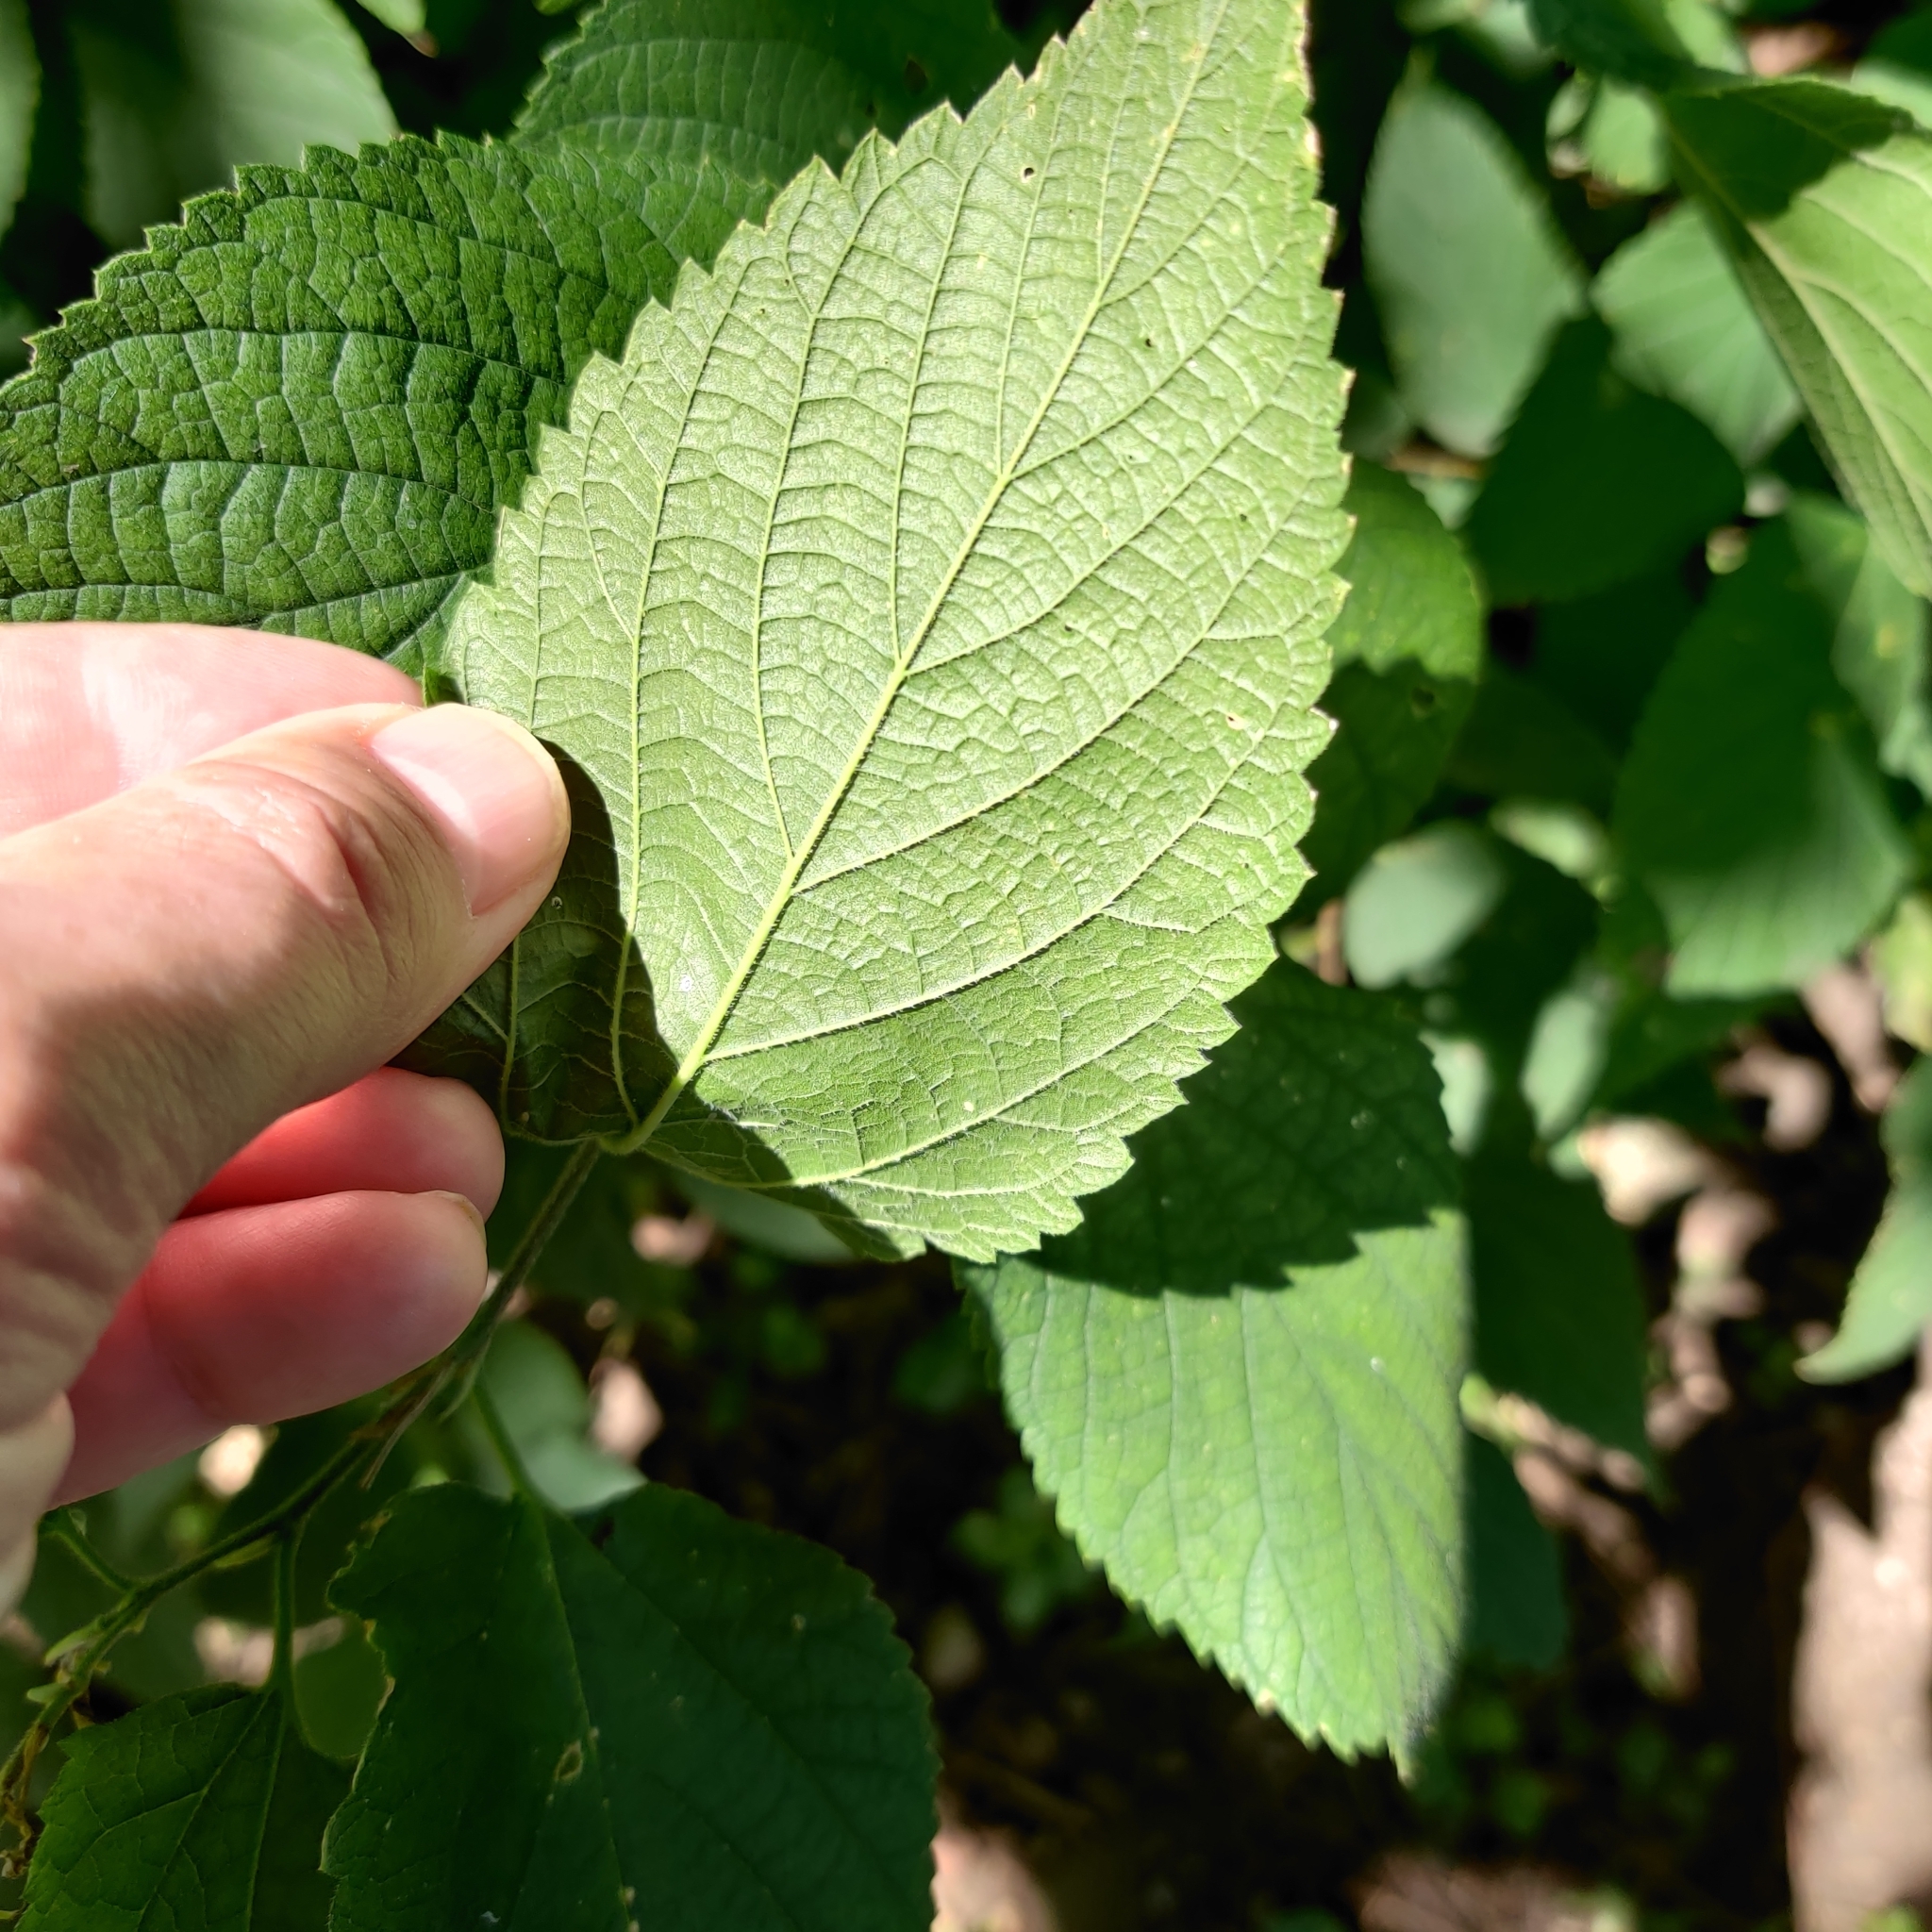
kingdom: Plantae
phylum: Tracheophyta
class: Magnoliopsida
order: Rosales
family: Cannabaceae
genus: Celtis
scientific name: Celtis occidentalis
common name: Common hackberry
